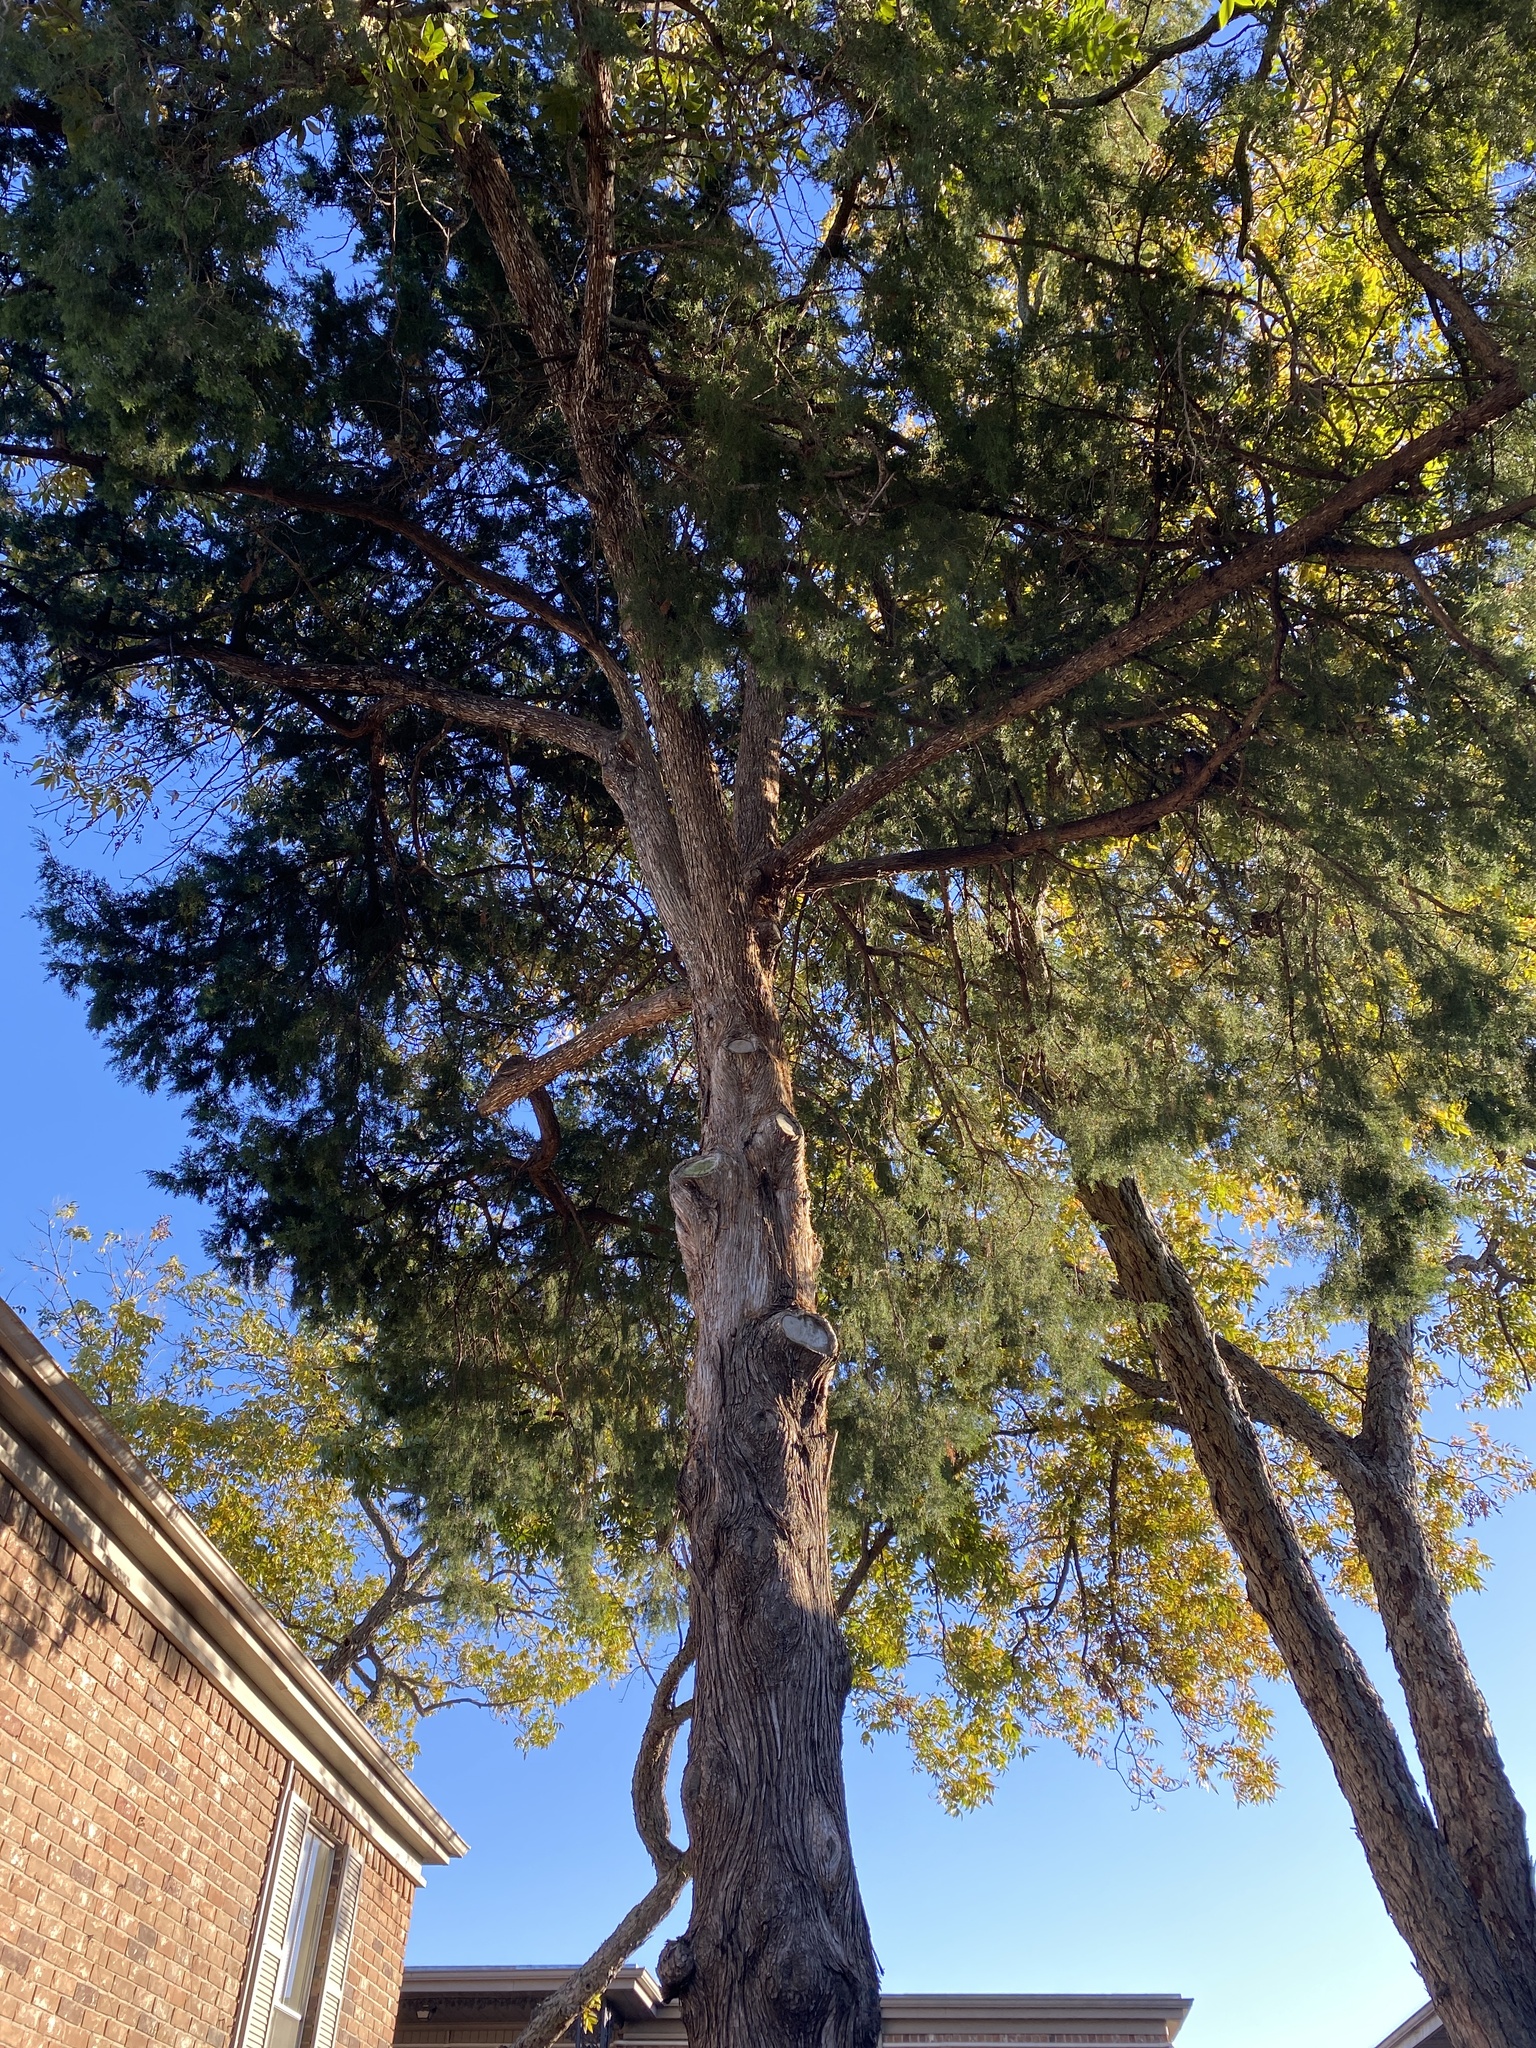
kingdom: Plantae
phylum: Tracheophyta
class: Pinopsida
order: Pinales
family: Cupressaceae
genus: Juniperus
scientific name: Juniperus virginiana
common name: Red juniper
